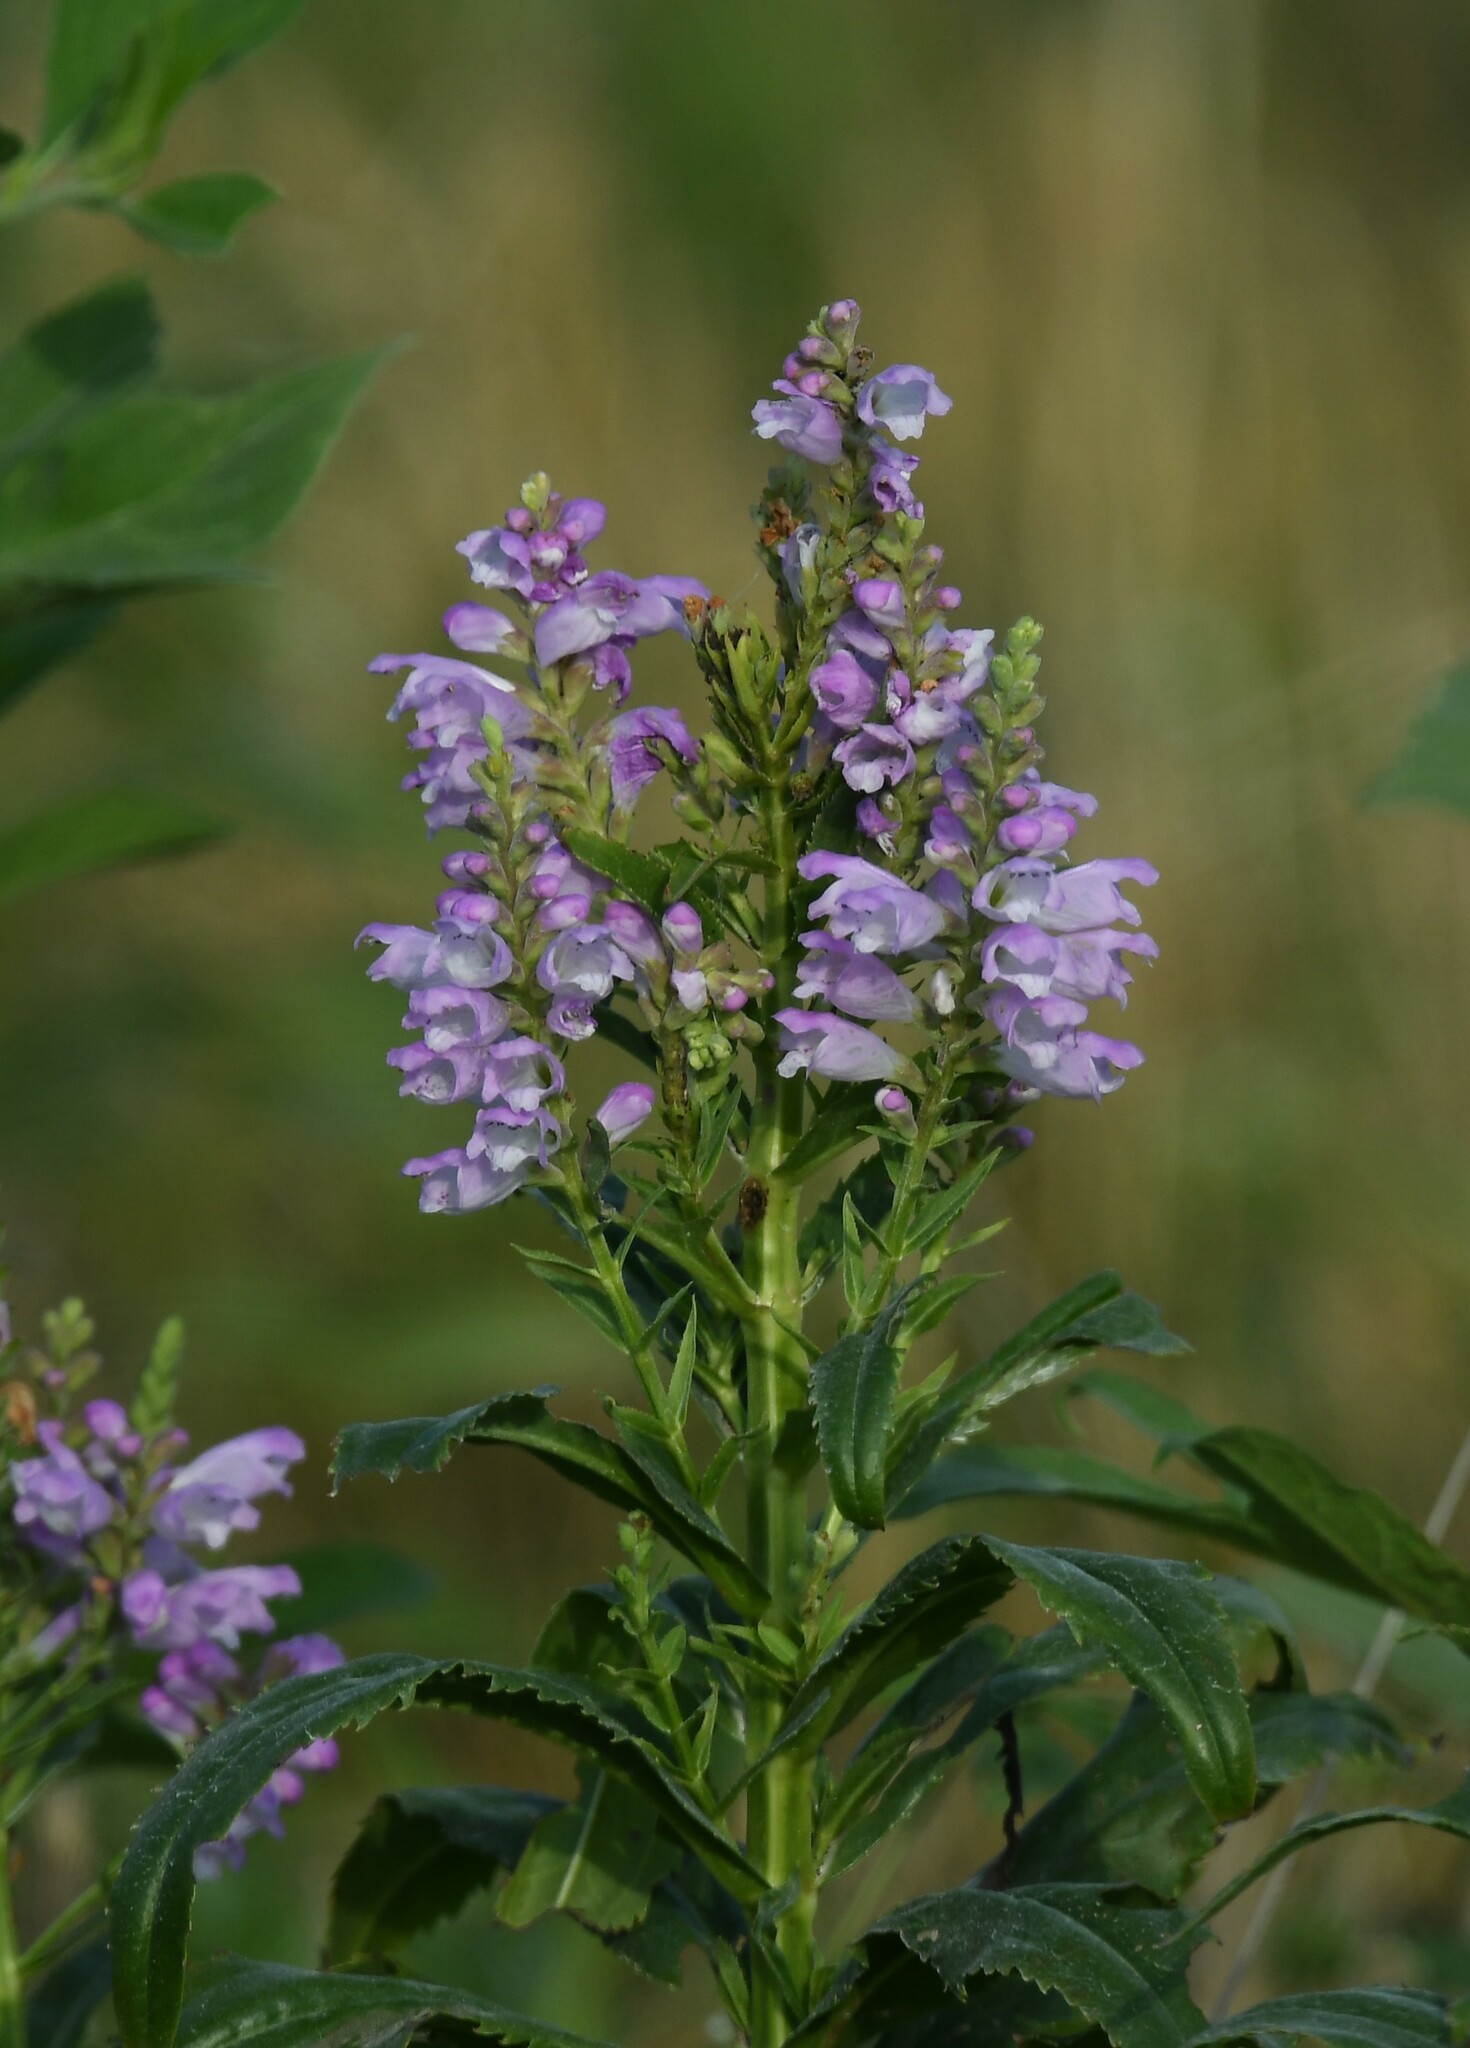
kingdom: Plantae
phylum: Tracheophyta
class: Magnoliopsida
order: Lamiales
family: Lamiaceae
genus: Physostegia
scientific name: Physostegia virginiana
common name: Obedient-plant
